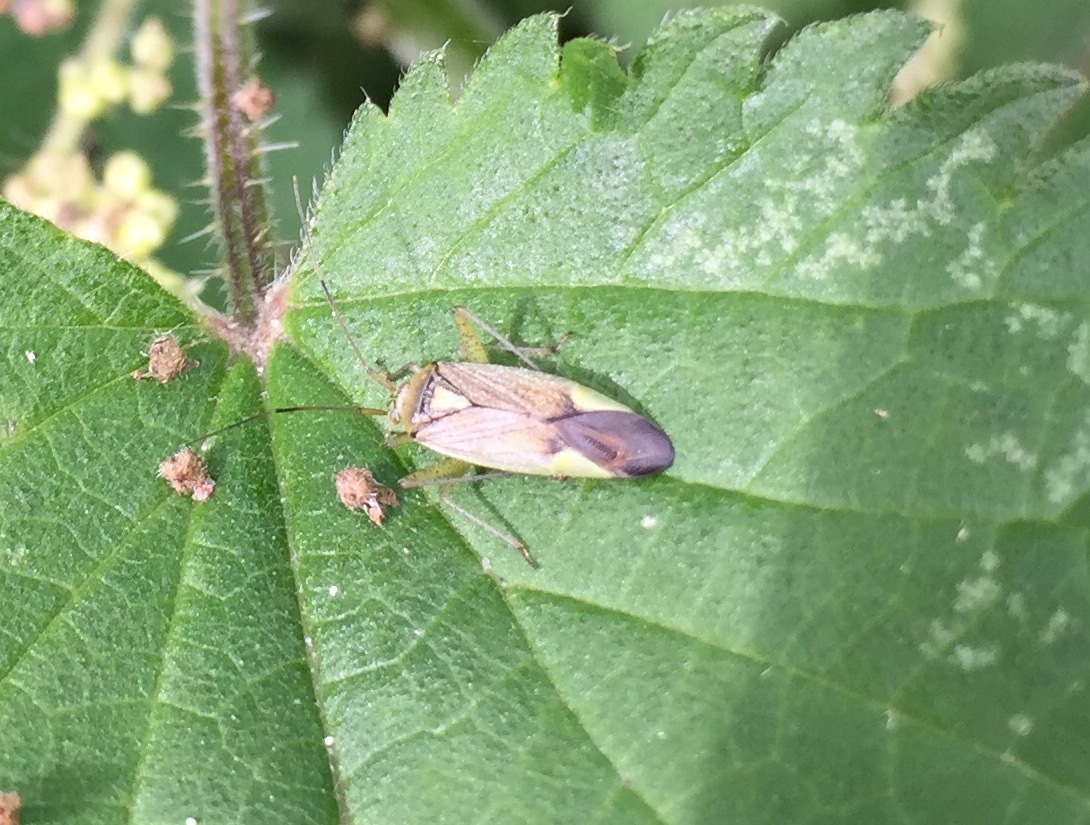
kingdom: Animalia
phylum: Arthropoda
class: Insecta
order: Hemiptera
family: Miridae
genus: Closterotomus
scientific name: Closterotomus trivialis
